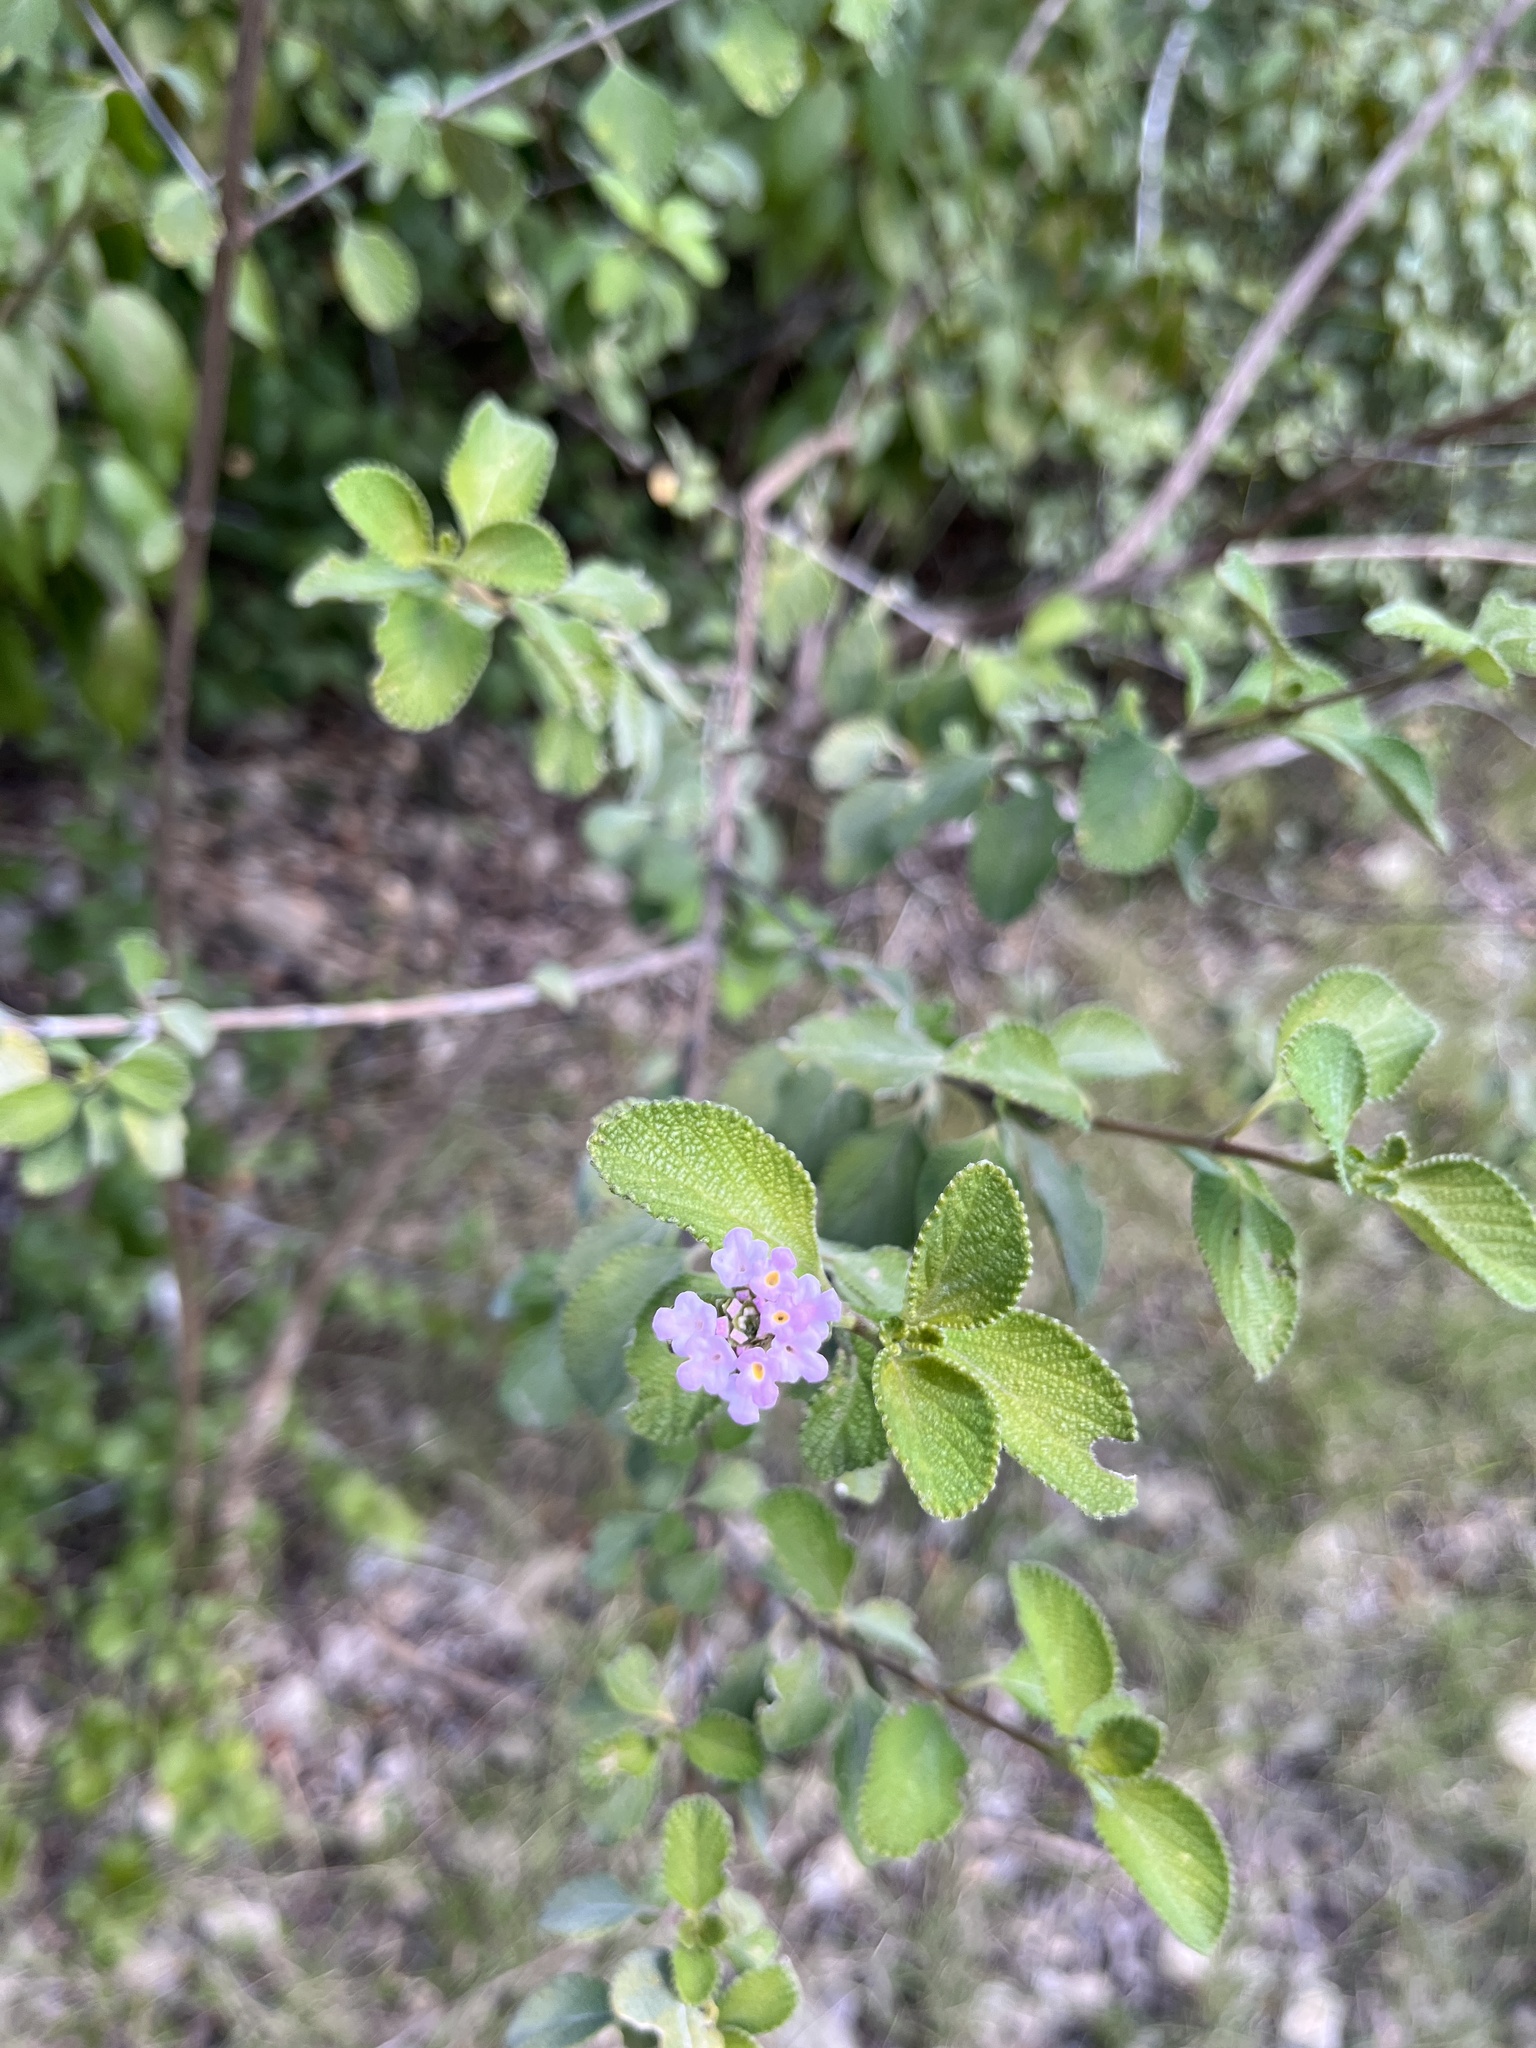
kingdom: Plantae
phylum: Tracheophyta
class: Magnoliopsida
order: Lamiales
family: Verbenaceae
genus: Lantana
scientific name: Lantana involucrata
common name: Black sage
